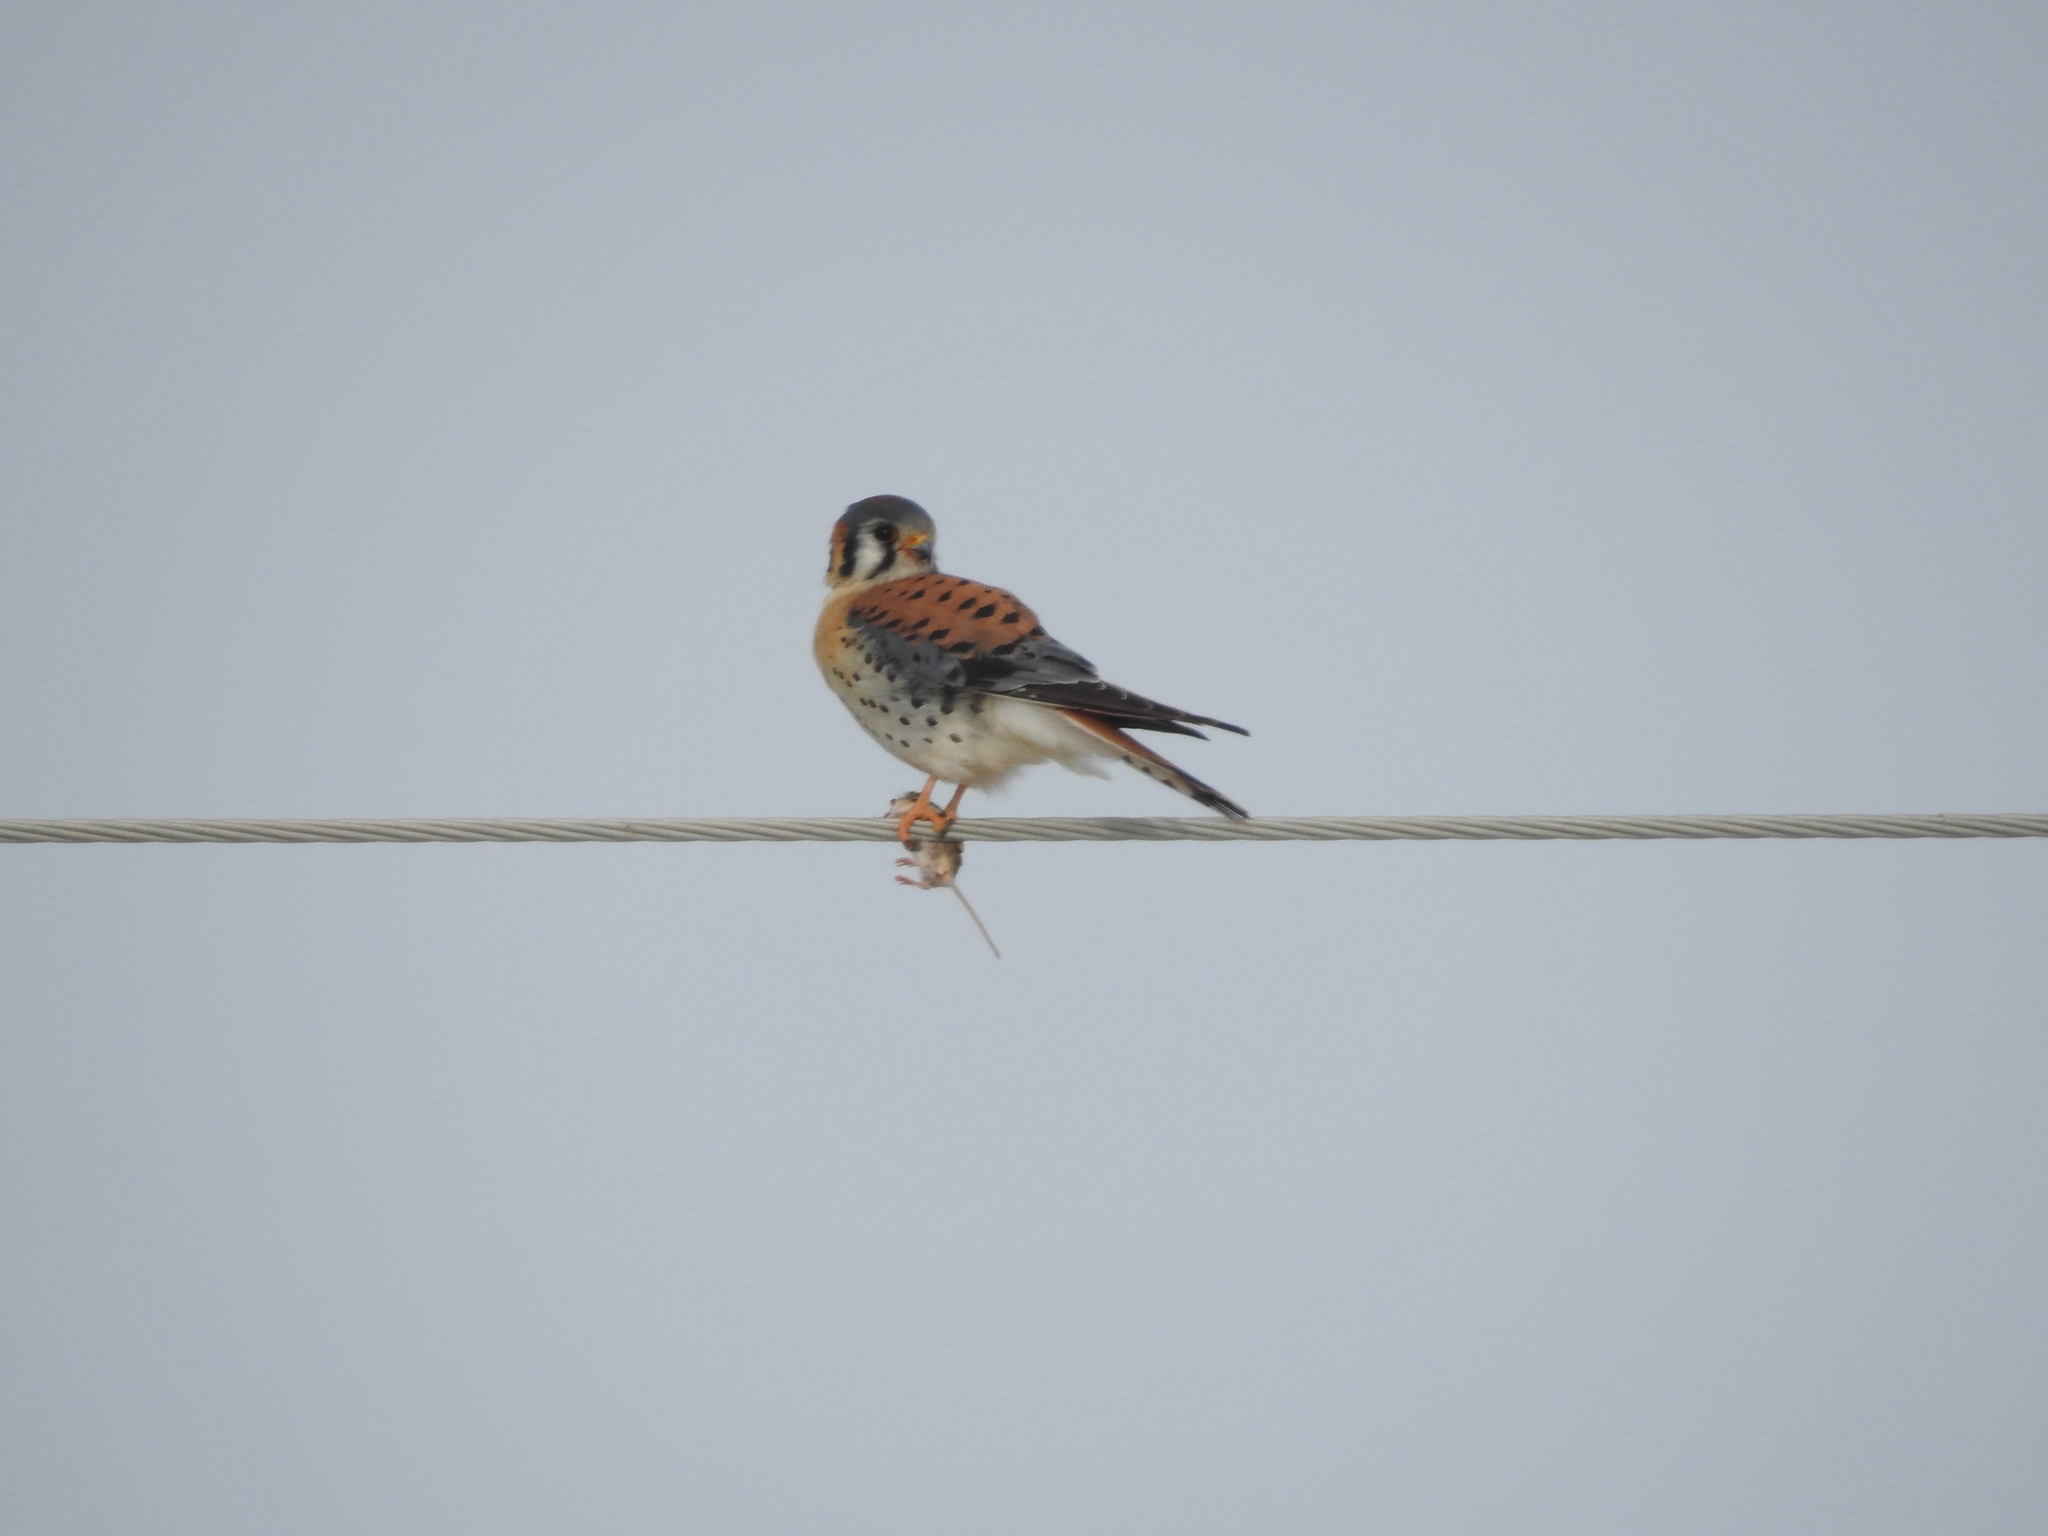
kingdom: Animalia
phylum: Chordata
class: Aves
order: Falconiformes
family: Falconidae
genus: Falco
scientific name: Falco sparverius
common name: American kestrel
